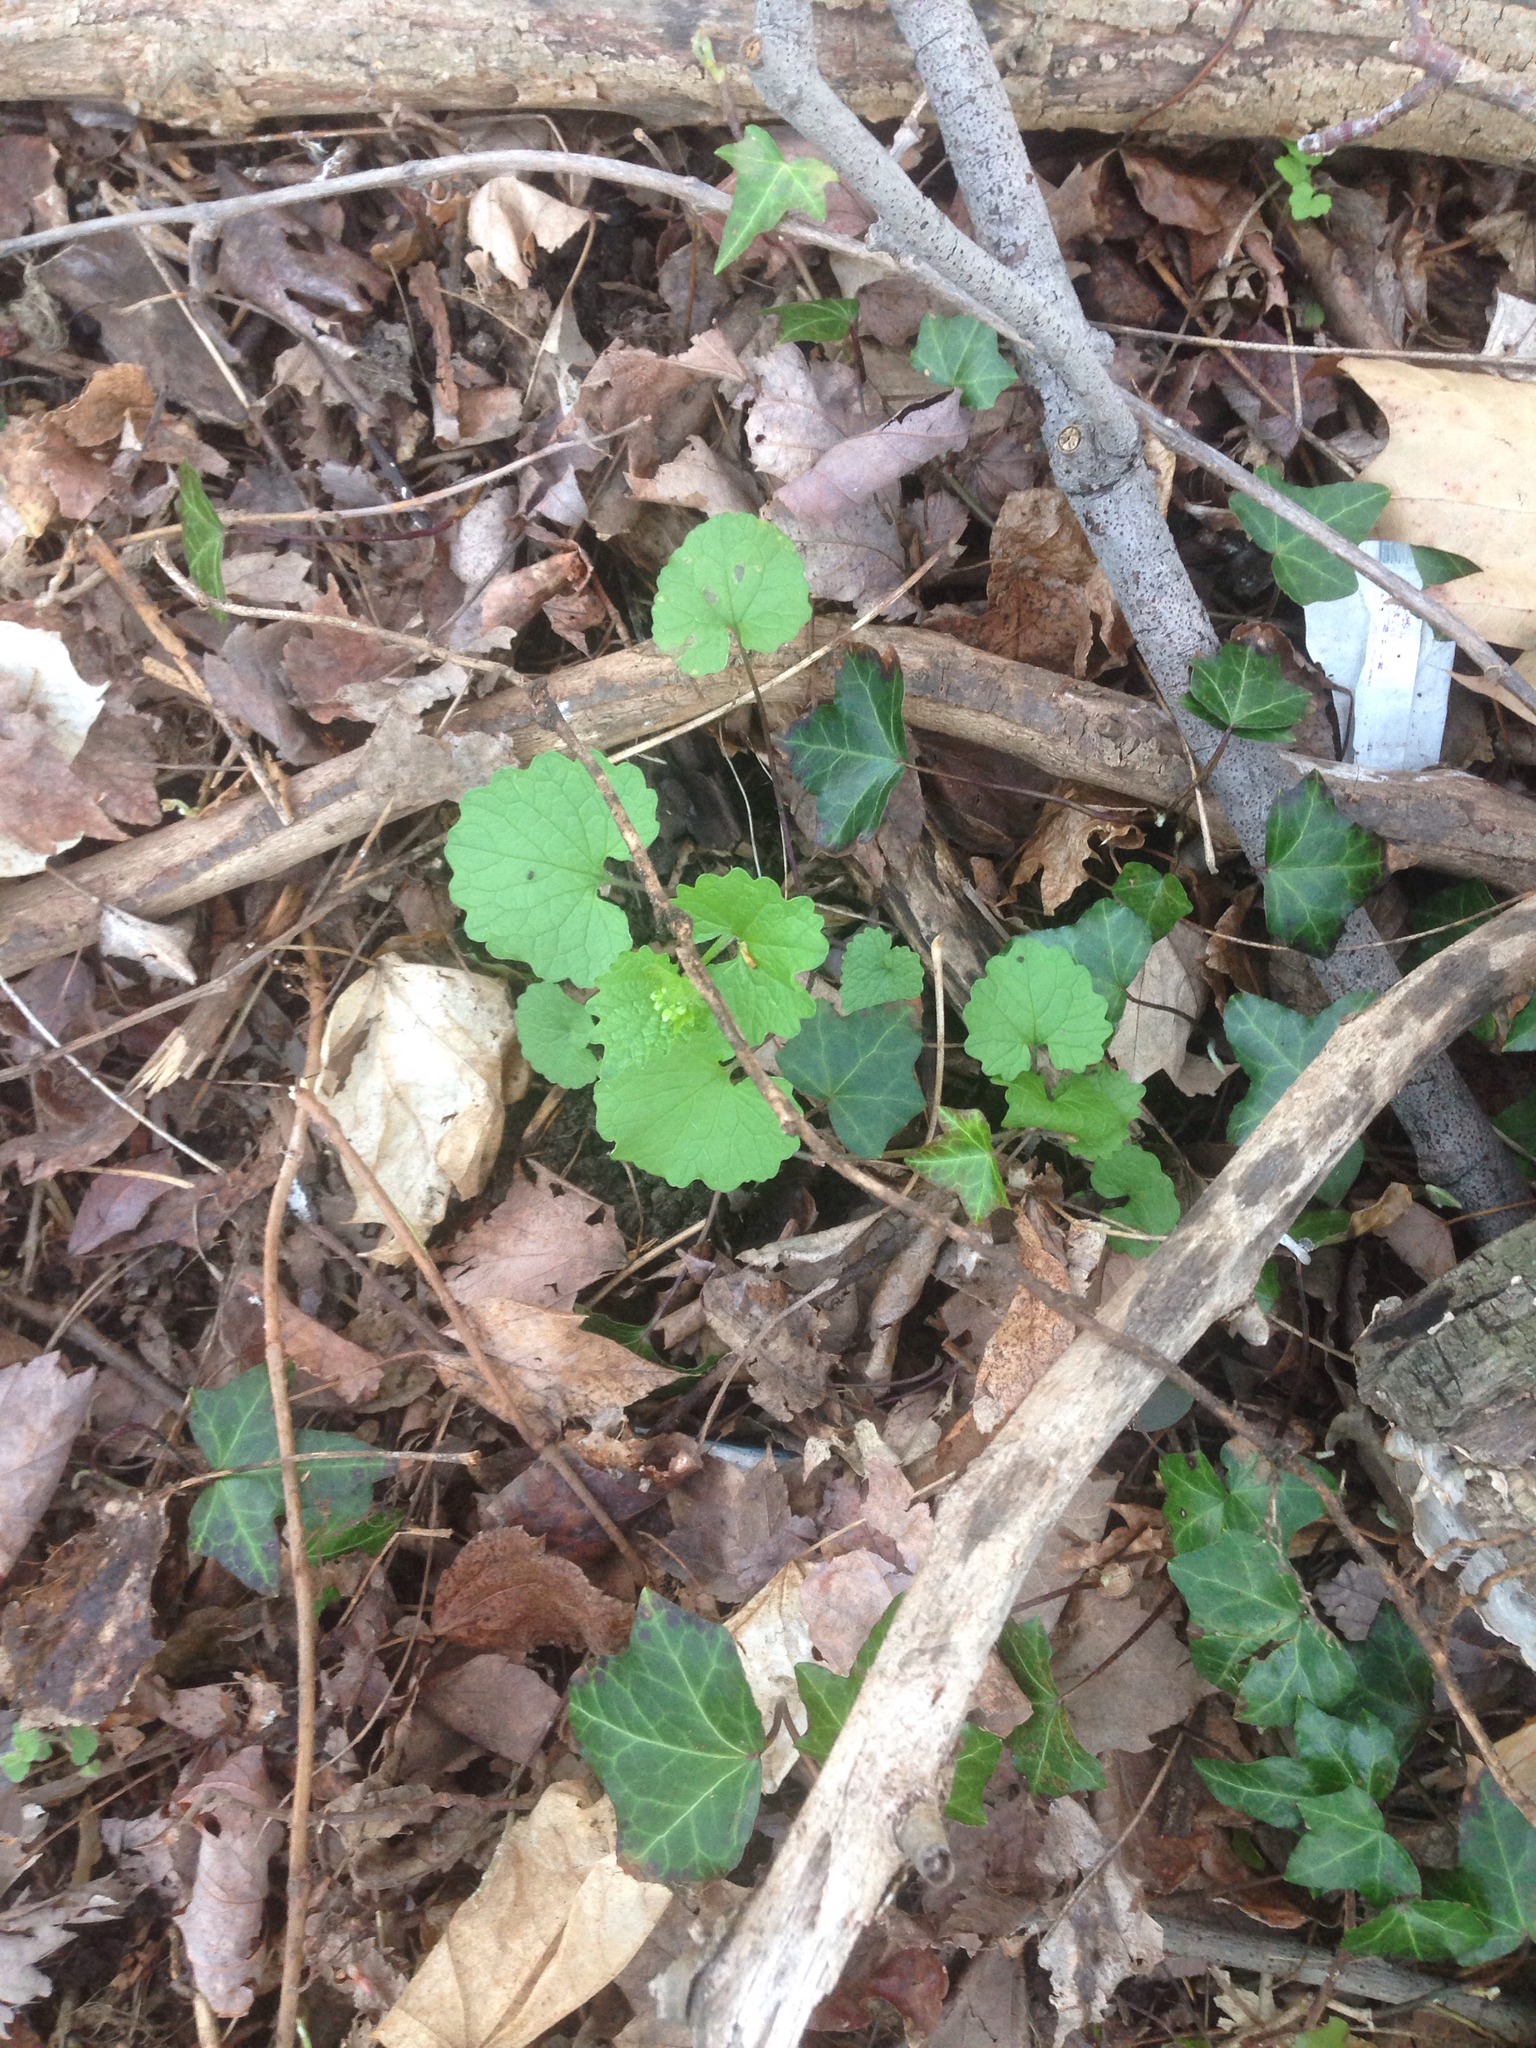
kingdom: Plantae
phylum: Tracheophyta
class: Magnoliopsida
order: Brassicales
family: Brassicaceae
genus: Alliaria
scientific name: Alliaria petiolata
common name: Garlic mustard
